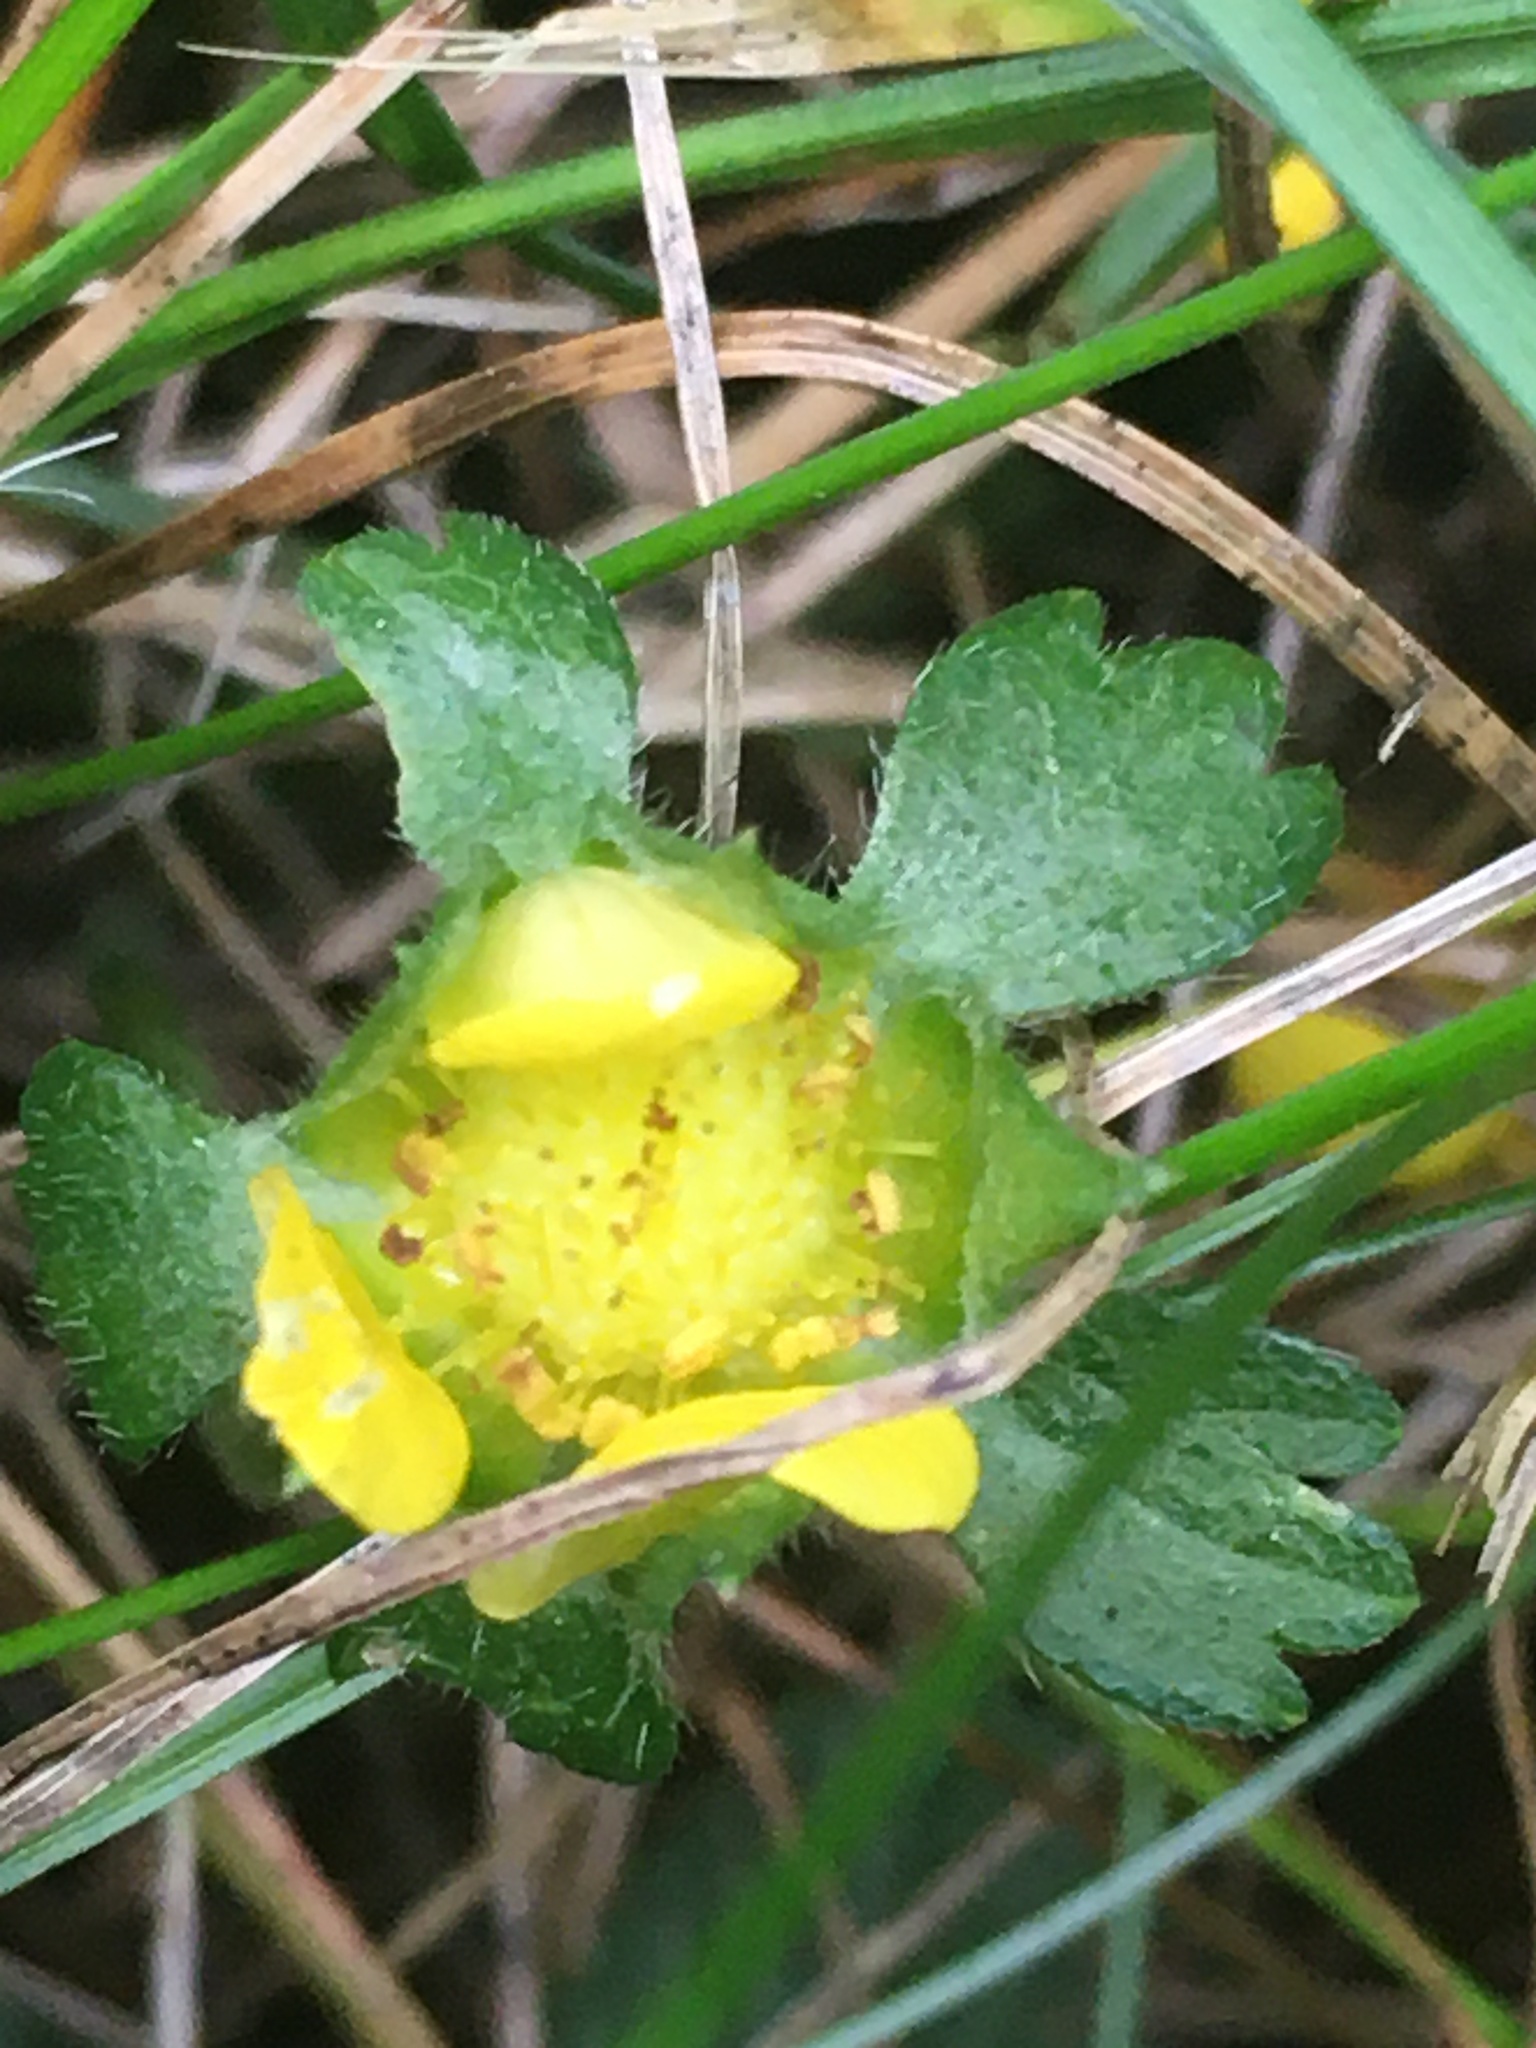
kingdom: Plantae
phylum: Tracheophyta
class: Magnoliopsida
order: Rosales
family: Rosaceae
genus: Potentilla
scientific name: Potentilla indica
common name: Yellow-flowered strawberry
